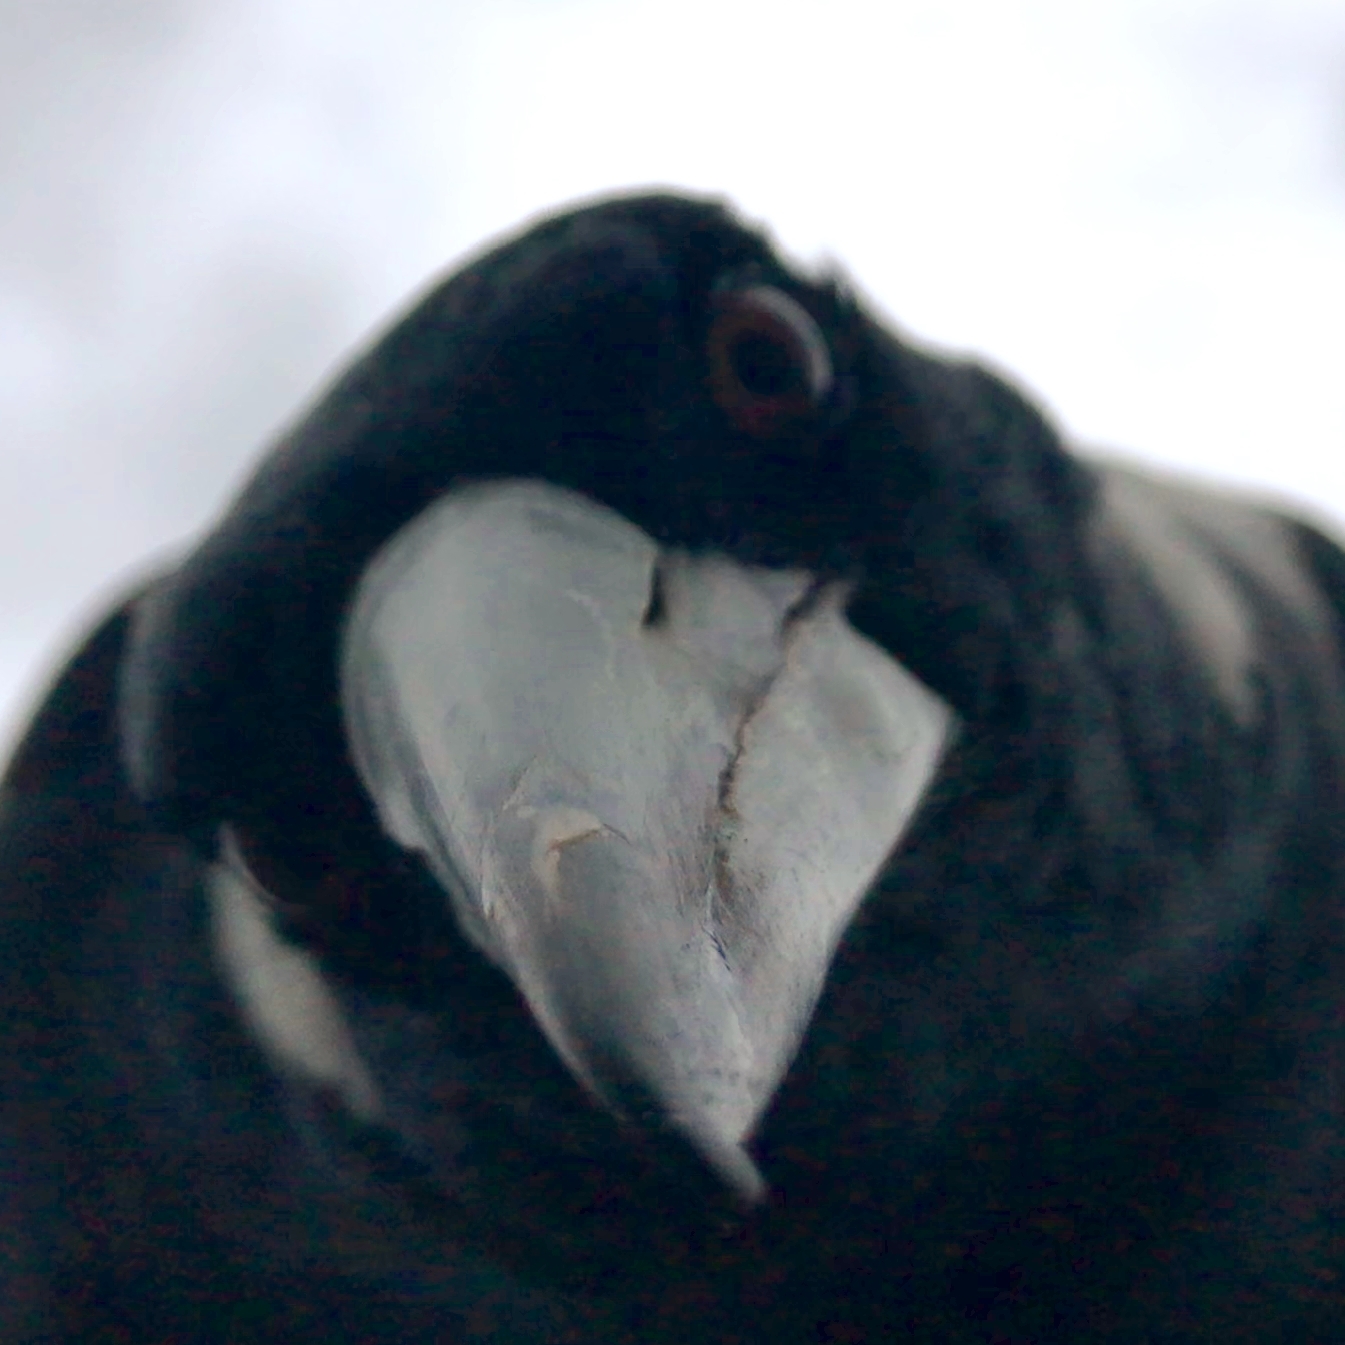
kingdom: Animalia
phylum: Chordata
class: Aves
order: Passeriformes
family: Cracticidae
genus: Gymnorhina
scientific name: Gymnorhina tibicen
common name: Australian magpie
